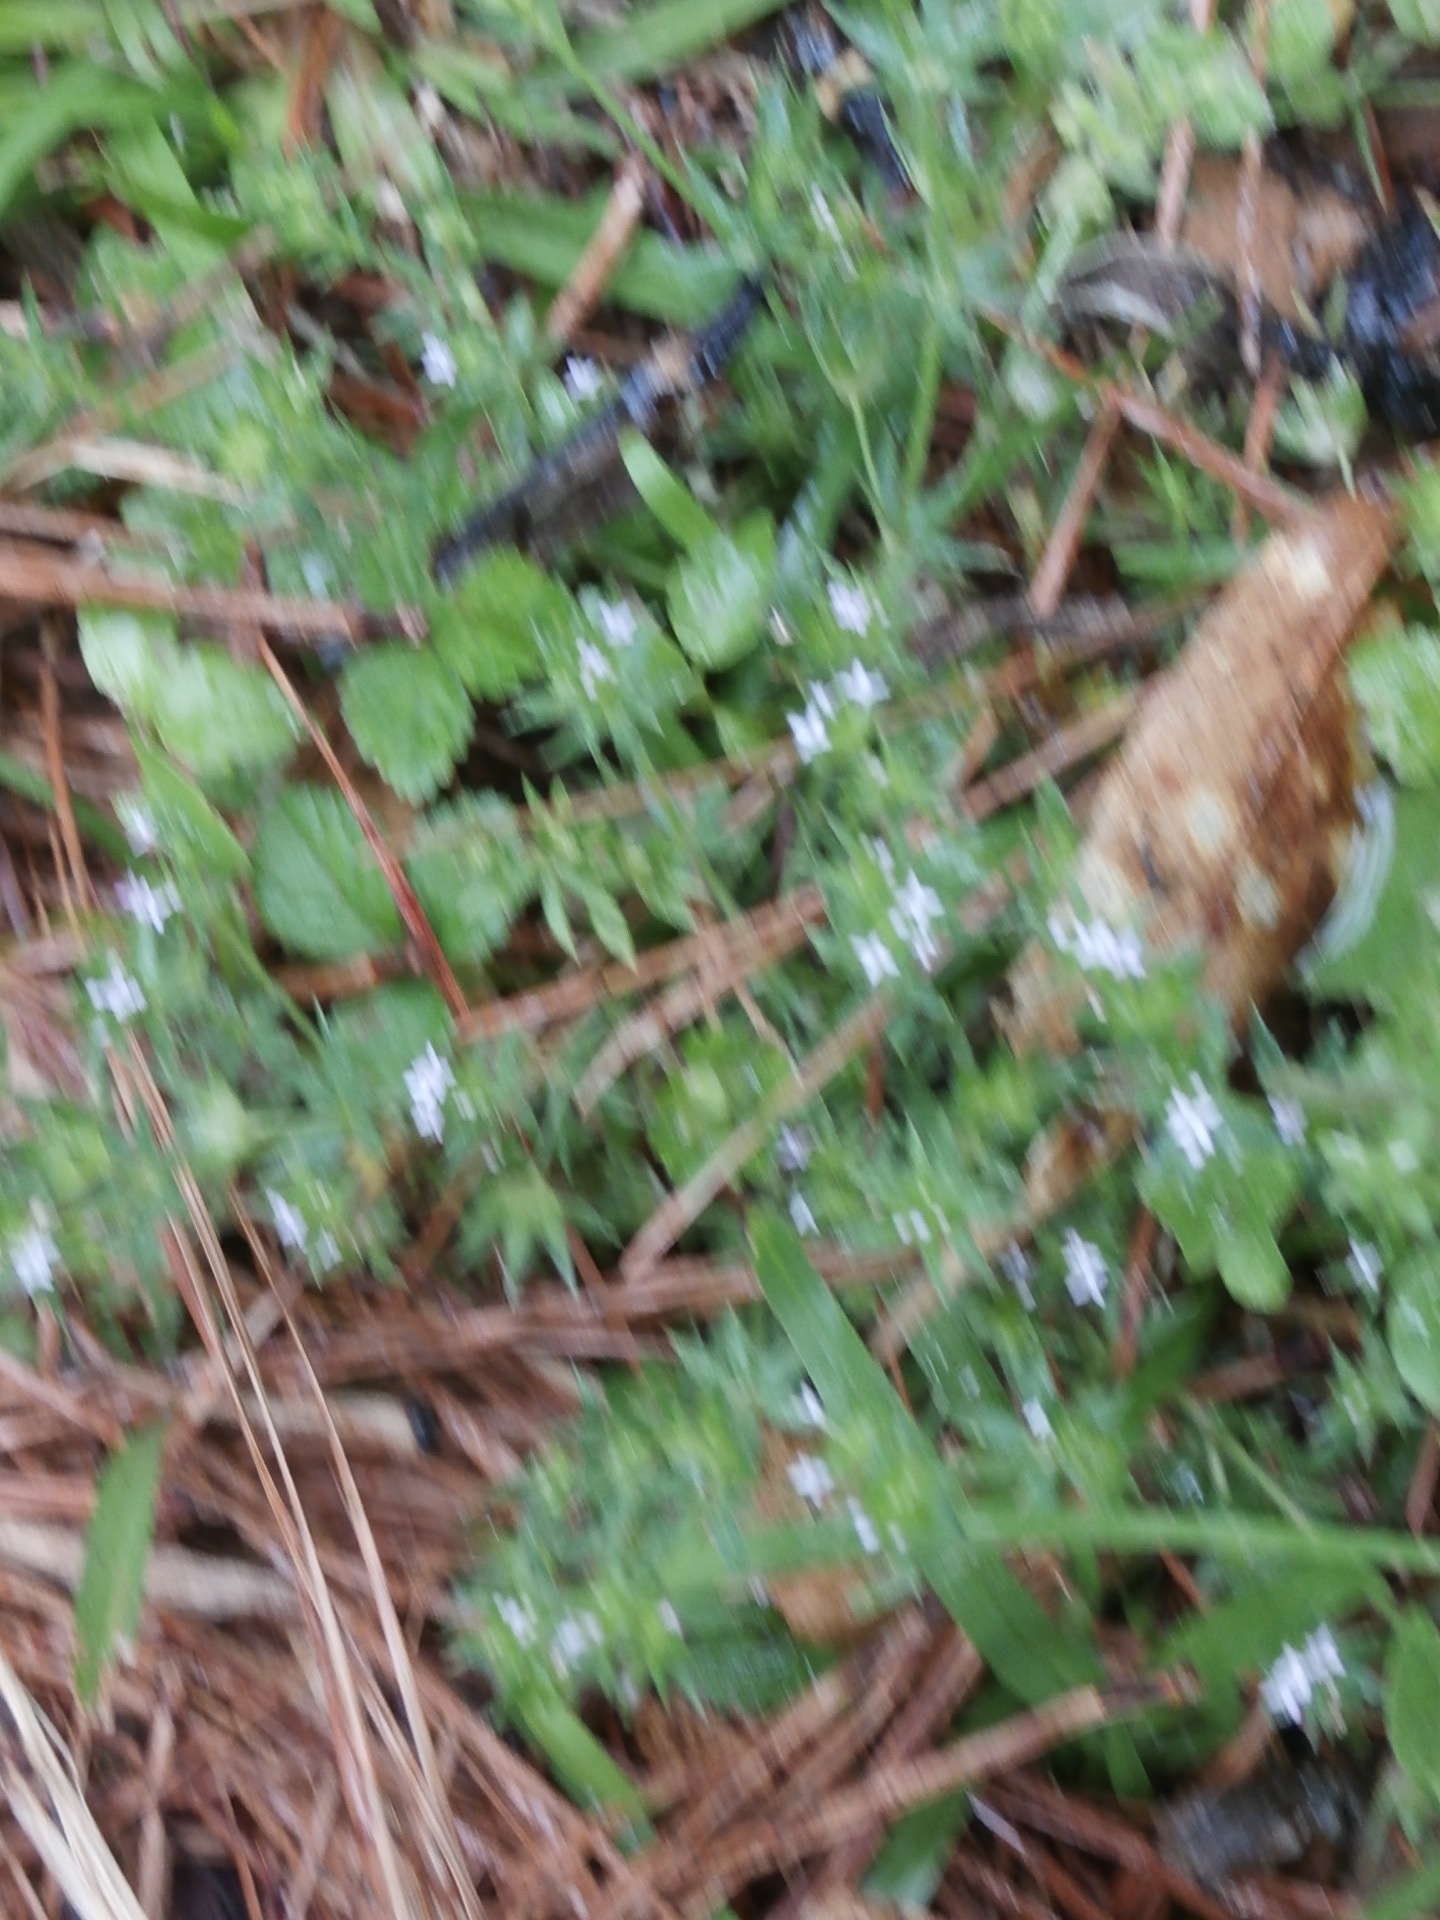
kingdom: Plantae
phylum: Tracheophyta
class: Magnoliopsida
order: Gentianales
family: Rubiaceae
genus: Sherardia
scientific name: Sherardia arvensis
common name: Field madder
